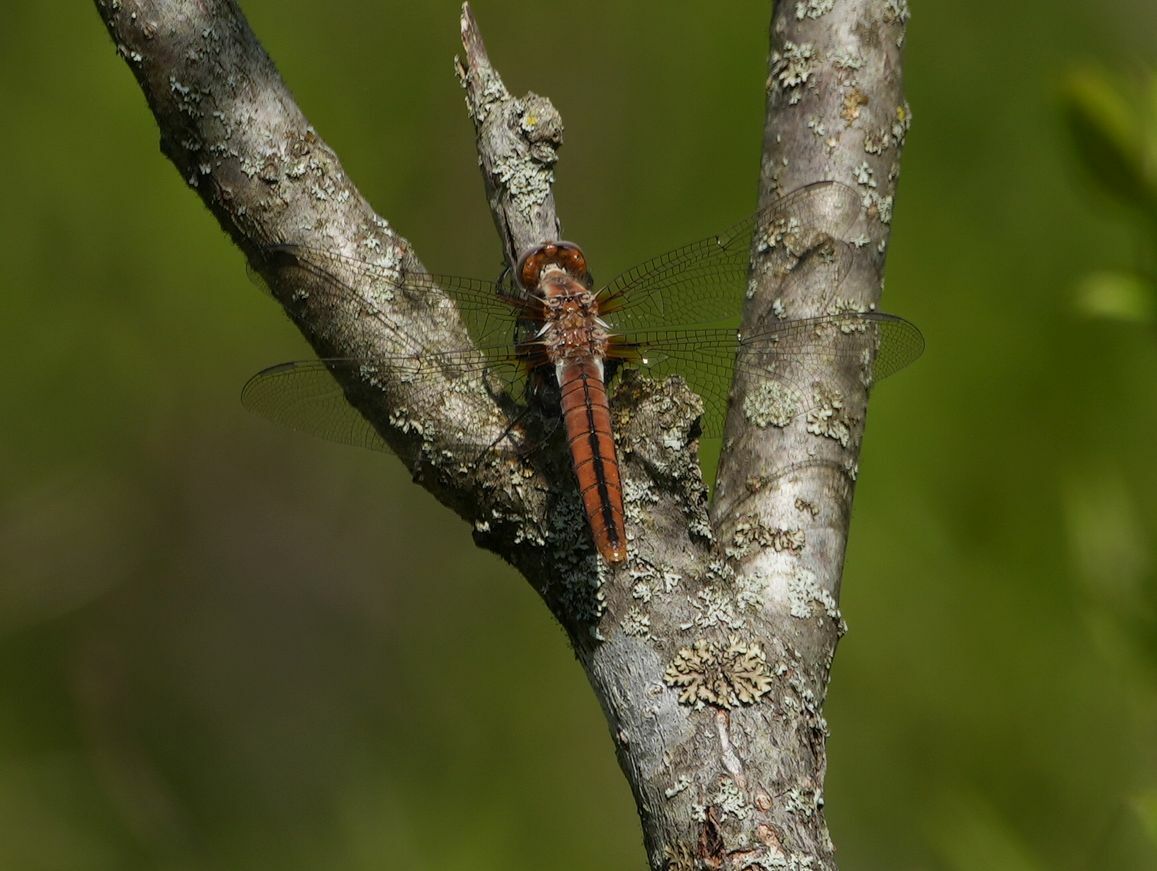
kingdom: Animalia
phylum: Arthropoda
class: Insecta
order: Odonata
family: Libellulidae
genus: Ladona
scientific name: Ladona julia
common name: Chalk-fronted corporal
